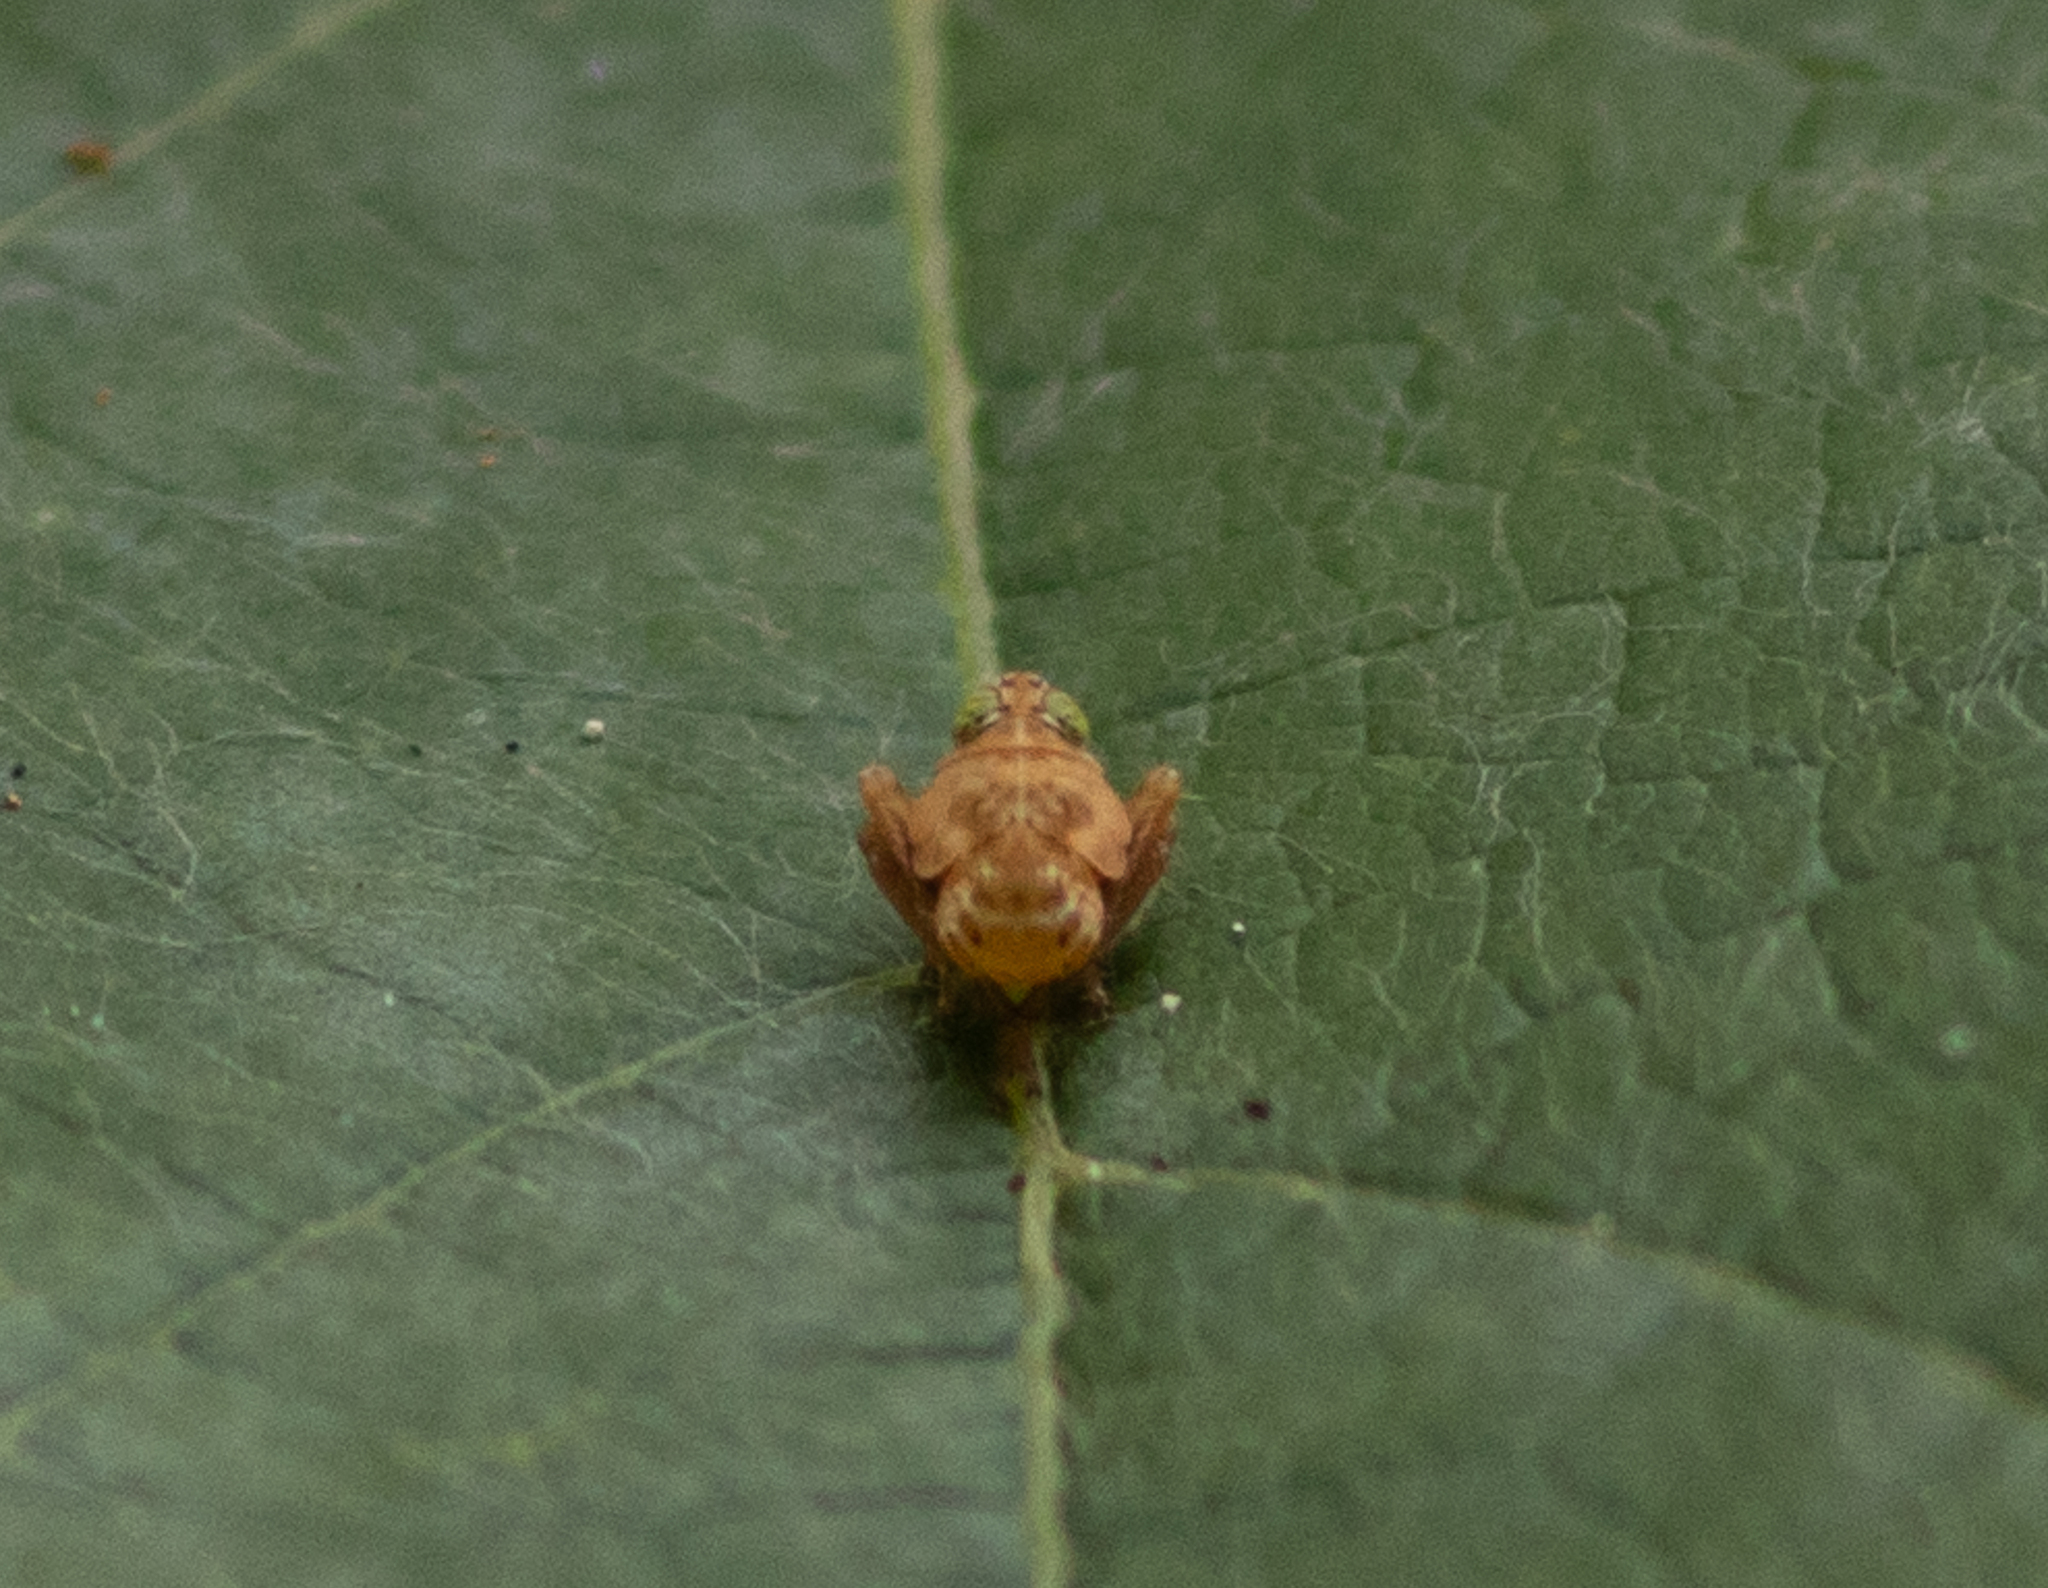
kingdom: Animalia
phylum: Arthropoda
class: Insecta
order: Hemiptera
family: Cicadellidae
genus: Jikradia
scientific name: Jikradia olitoria
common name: Coppery leafhopper
